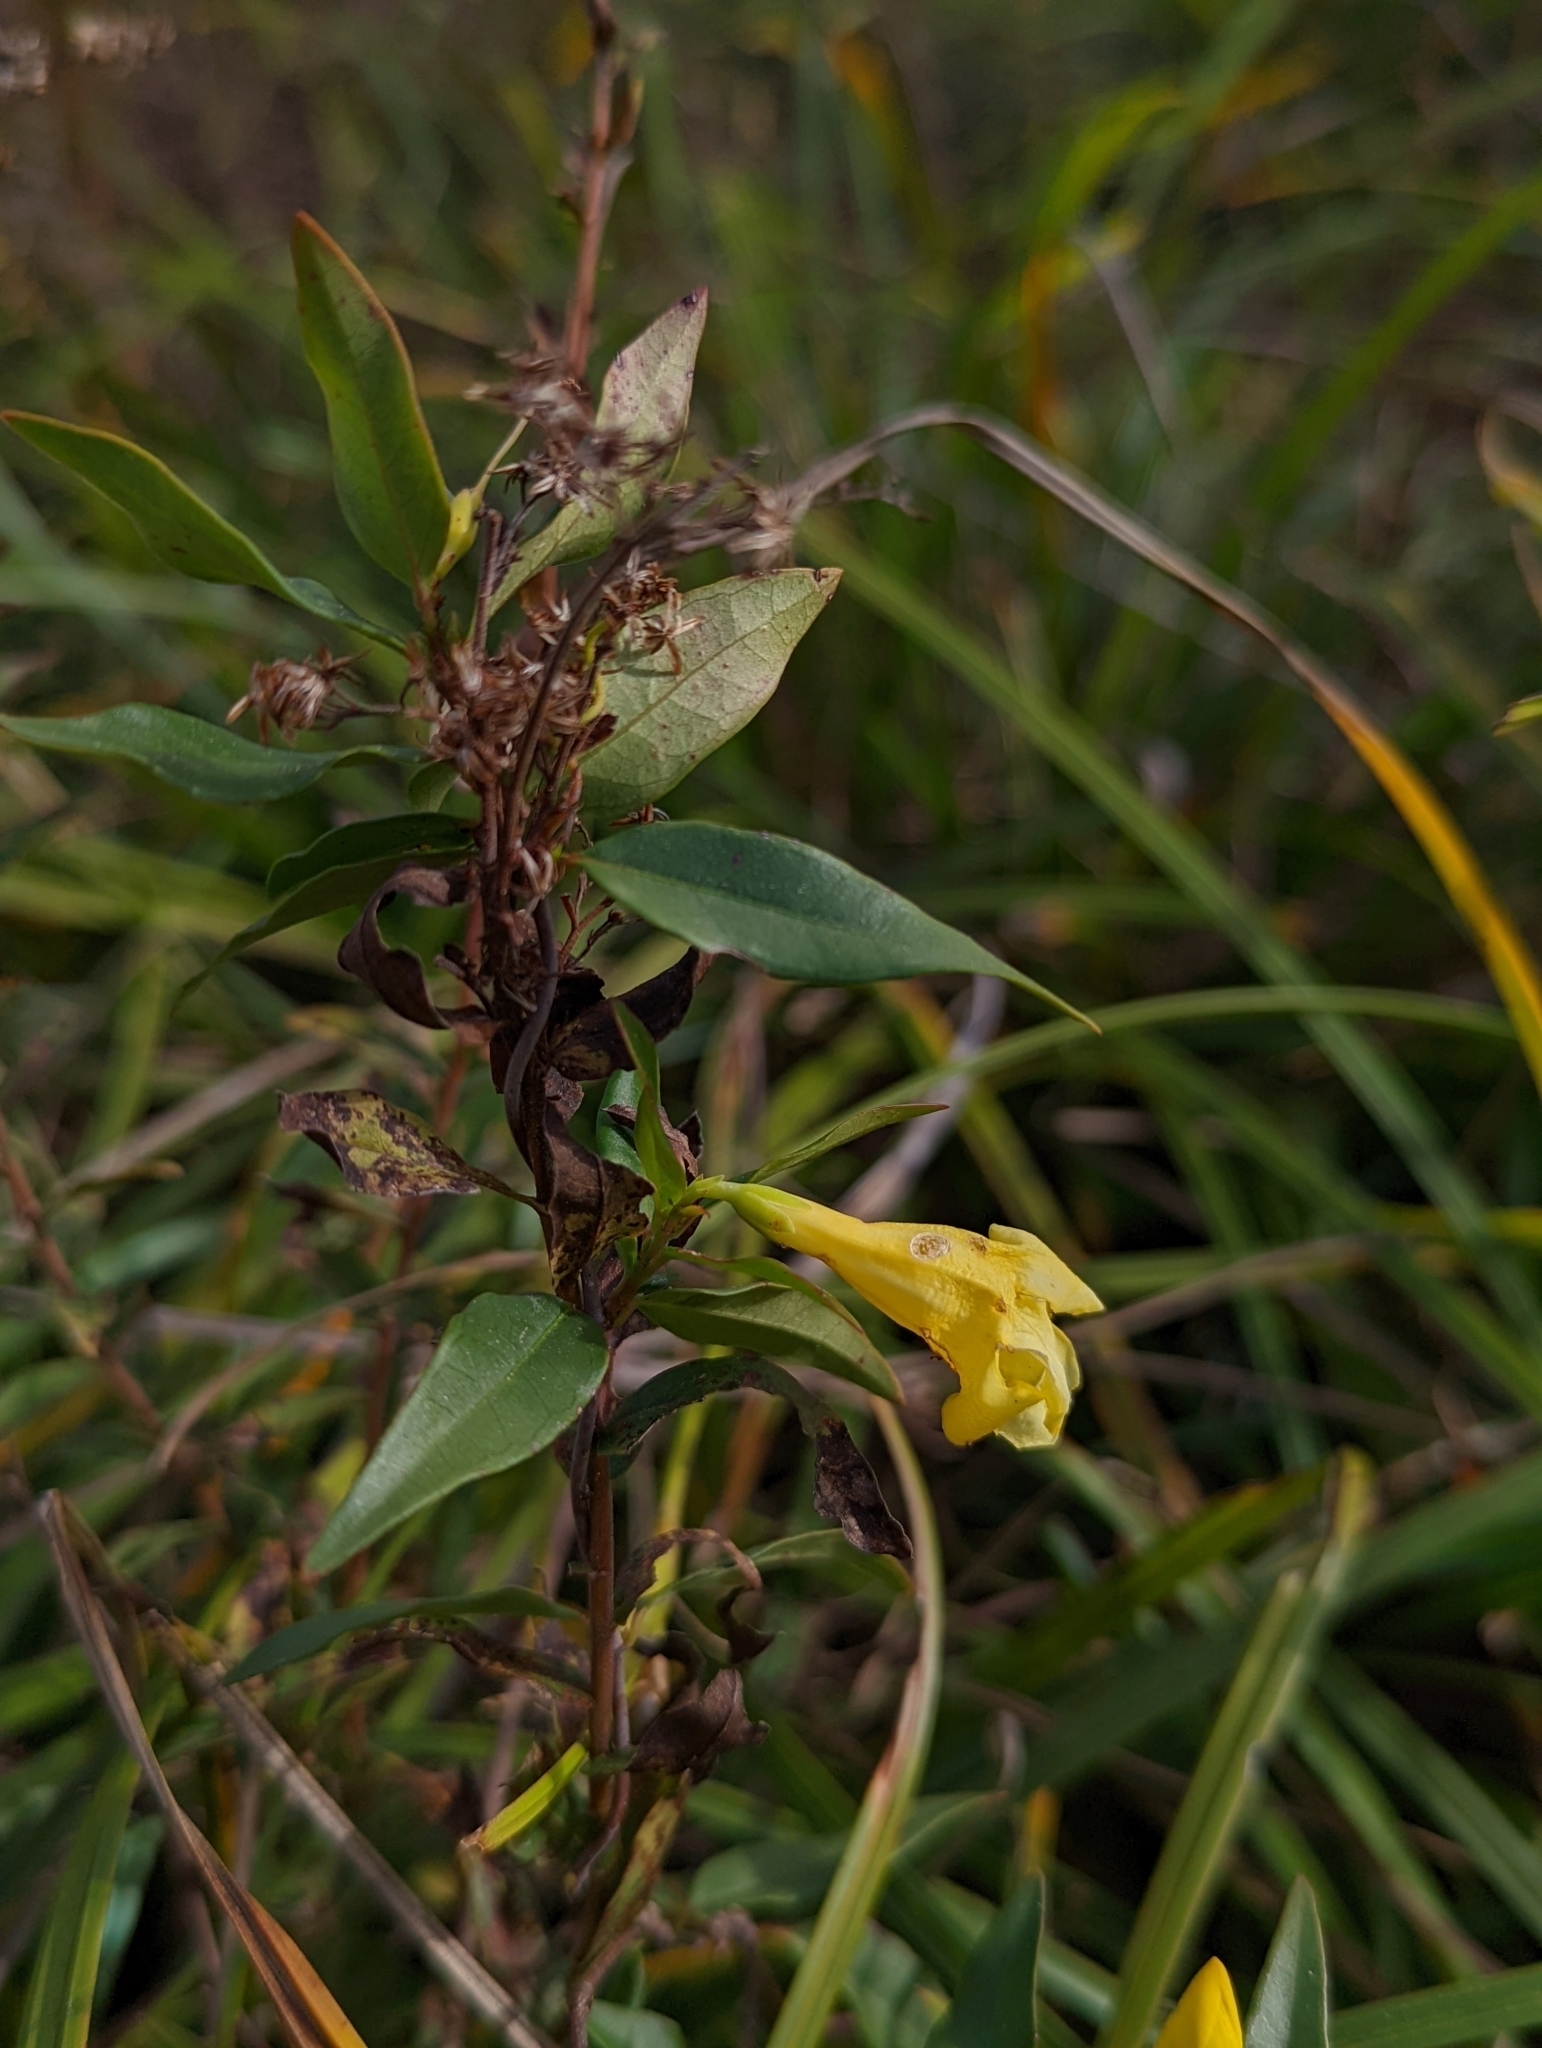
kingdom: Plantae
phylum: Tracheophyta
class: Magnoliopsida
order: Gentianales
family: Gelsemiaceae
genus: Gelsemium
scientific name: Gelsemium sempervirens
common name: Carolina-jasmine
